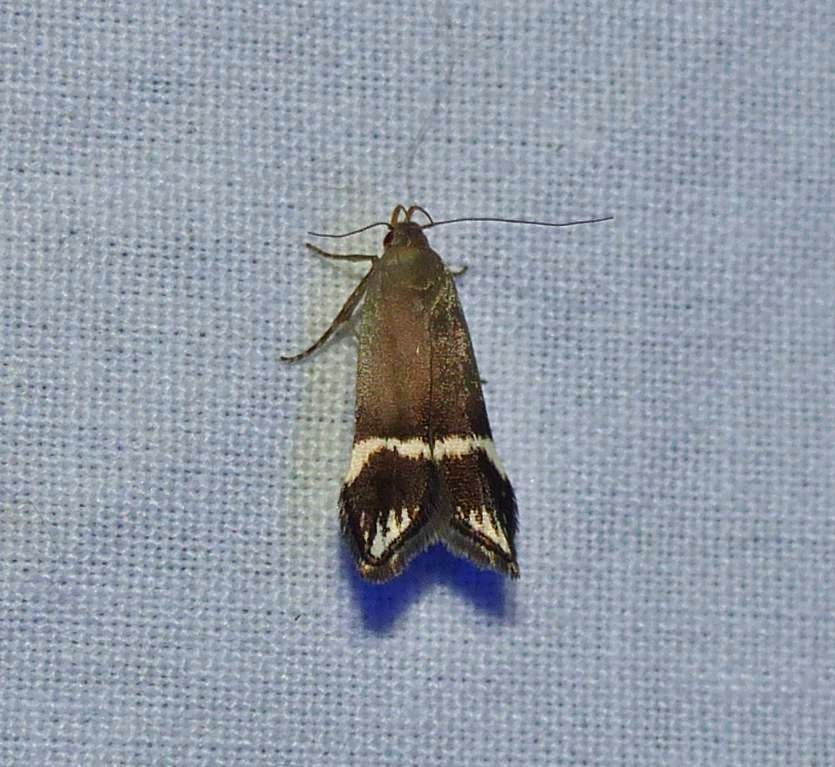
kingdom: Animalia
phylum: Arthropoda
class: Insecta
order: Lepidoptera
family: Gelechiidae
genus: Anacampsis
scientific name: Anacampsis tristrigella
